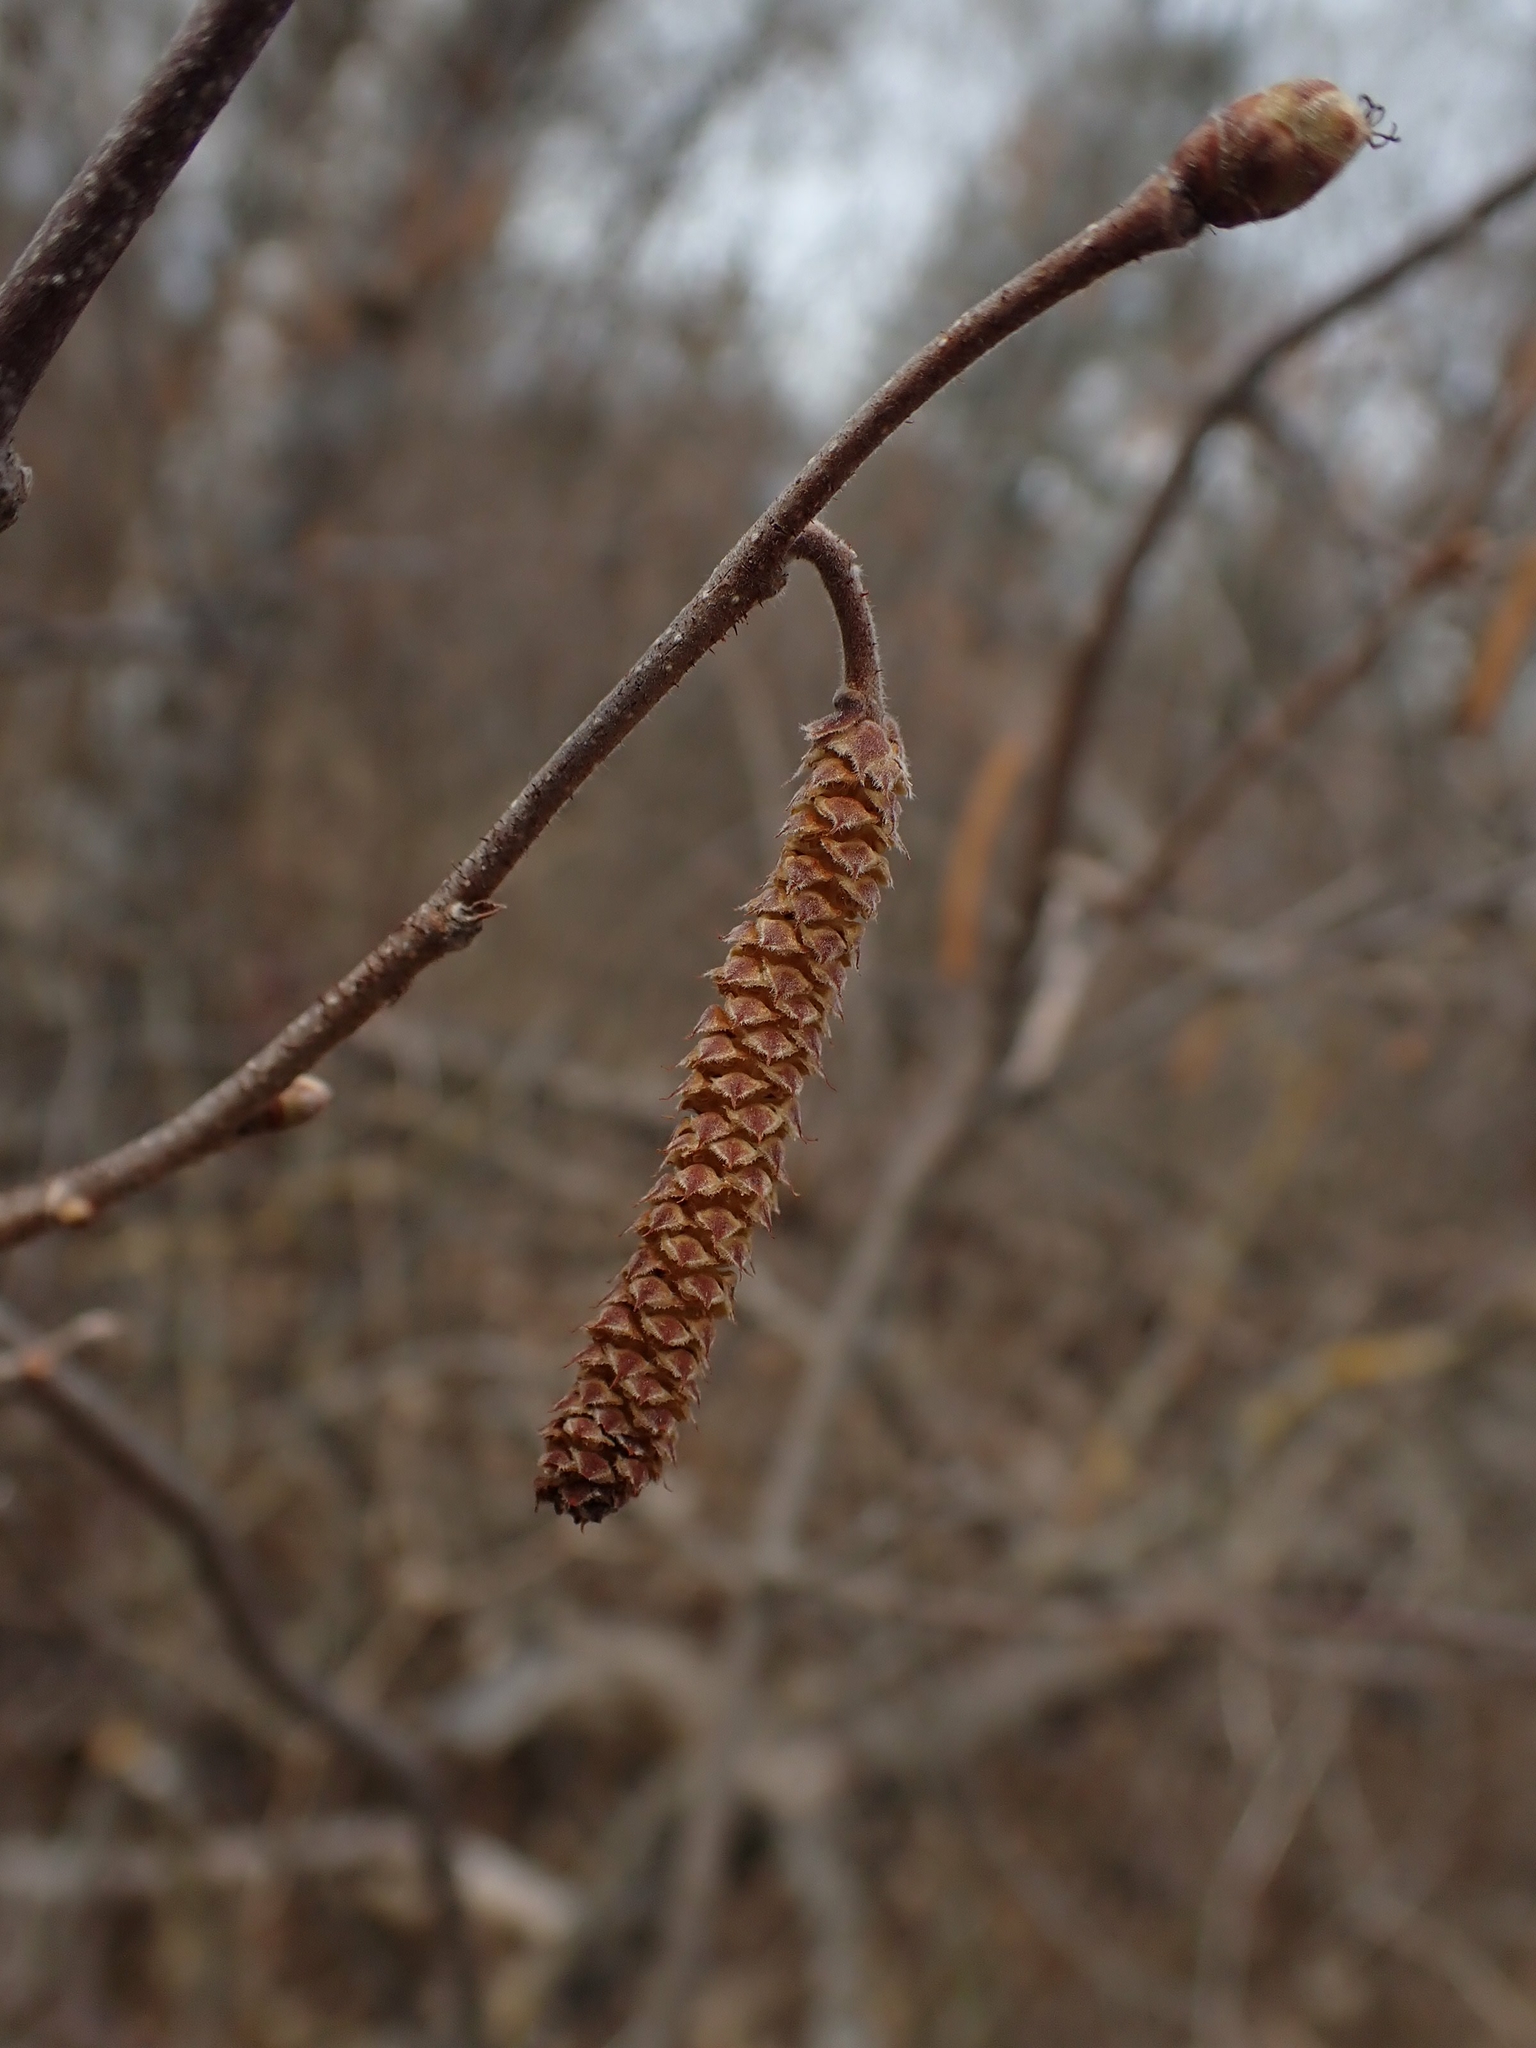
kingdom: Plantae
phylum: Tracheophyta
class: Magnoliopsida
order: Fagales
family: Betulaceae
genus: Corylus
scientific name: Corylus americana
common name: American hazel
